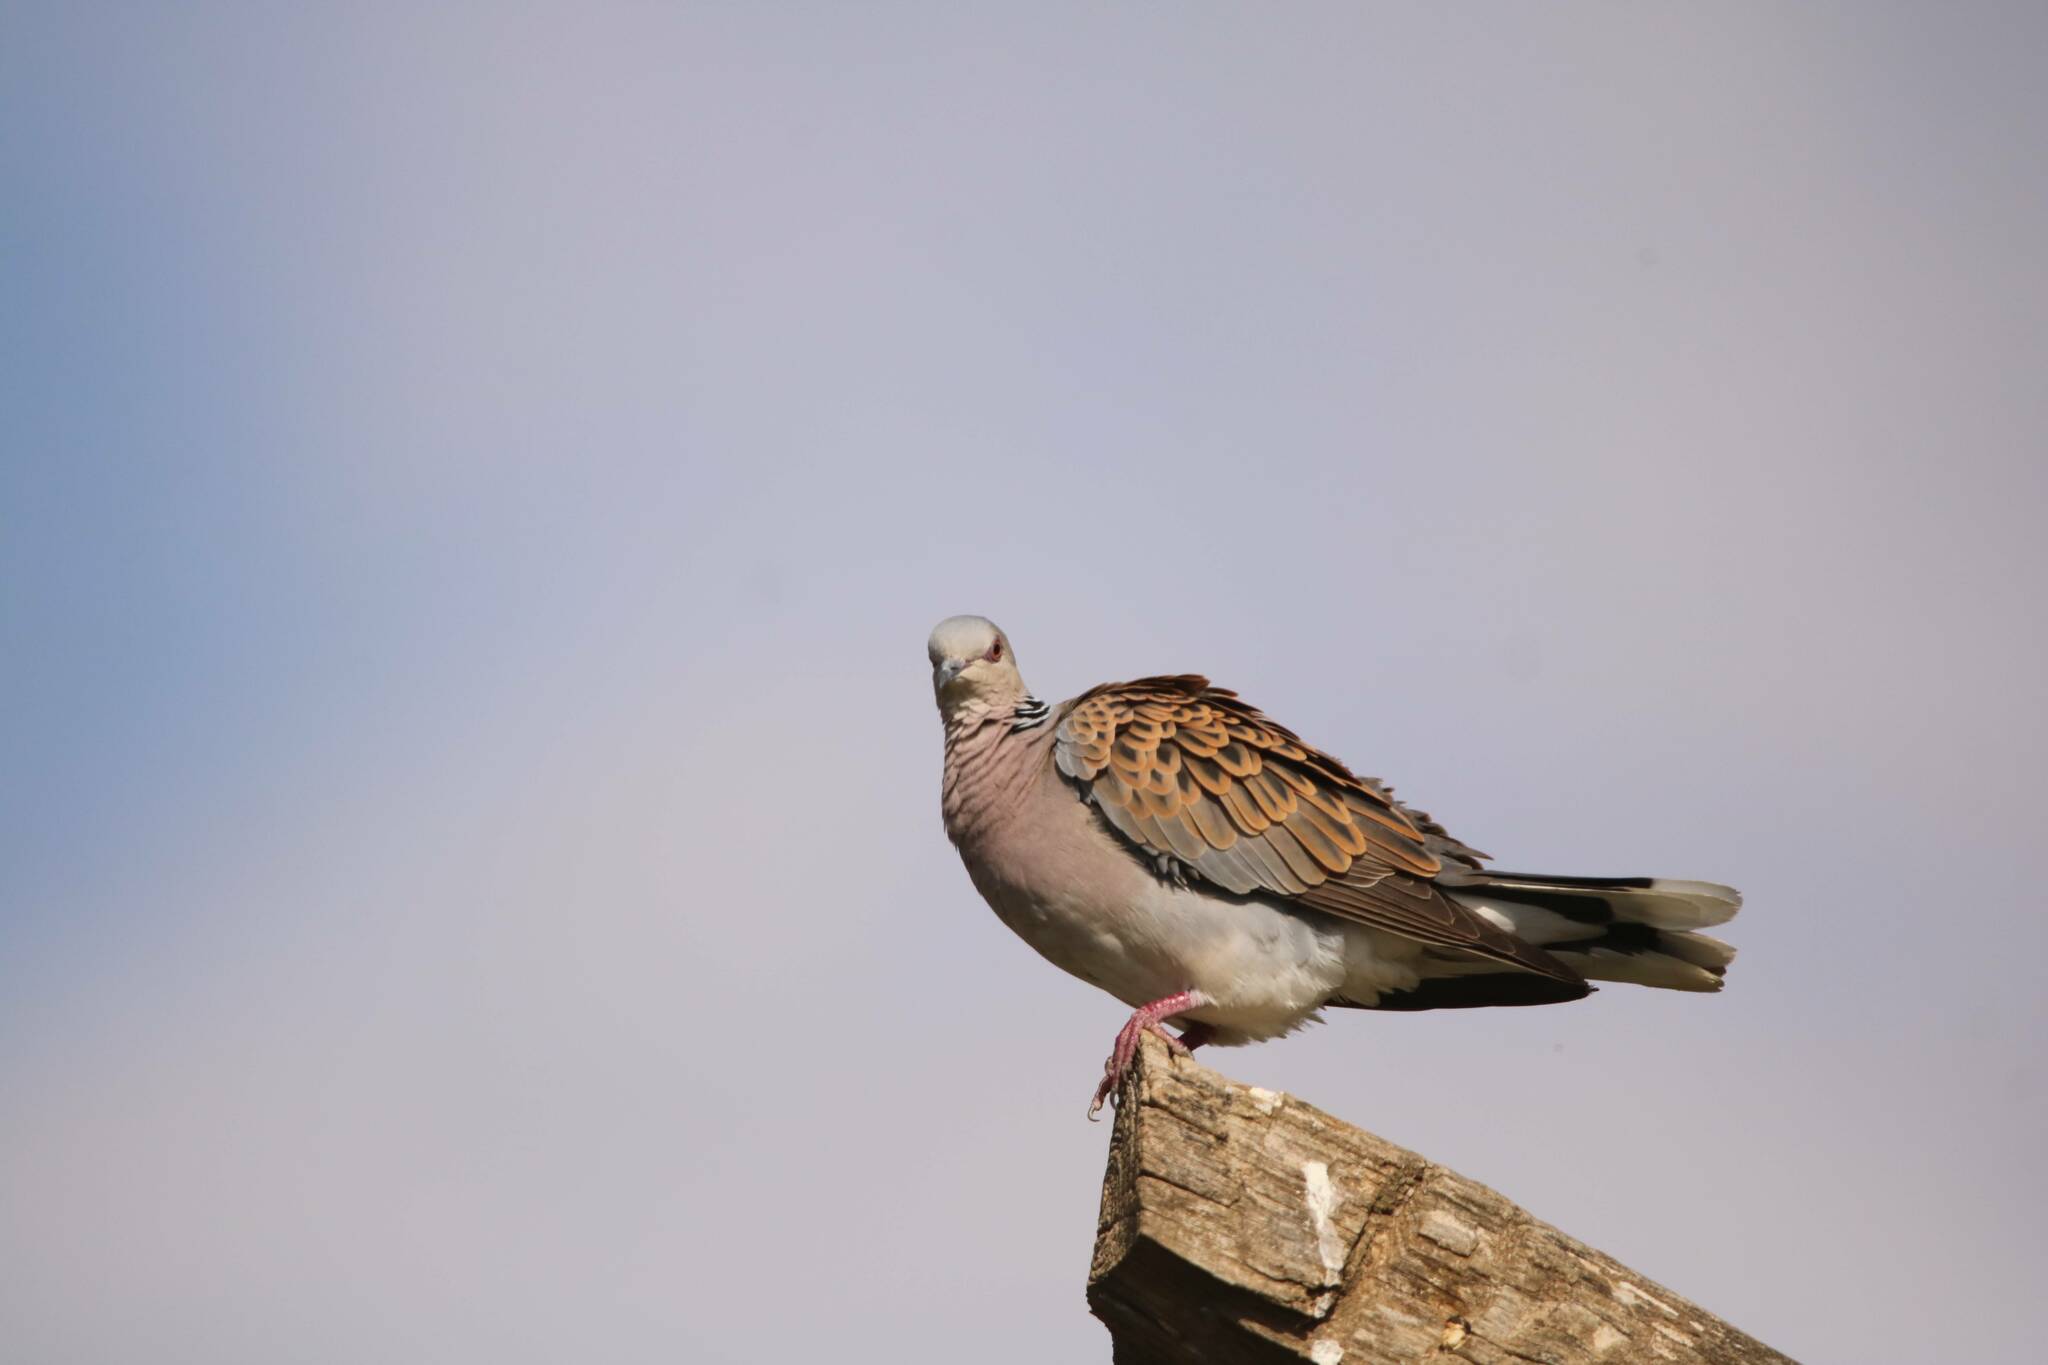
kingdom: Animalia
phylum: Chordata
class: Aves
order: Columbiformes
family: Columbidae
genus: Streptopelia
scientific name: Streptopelia turtur
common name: European turtle dove
